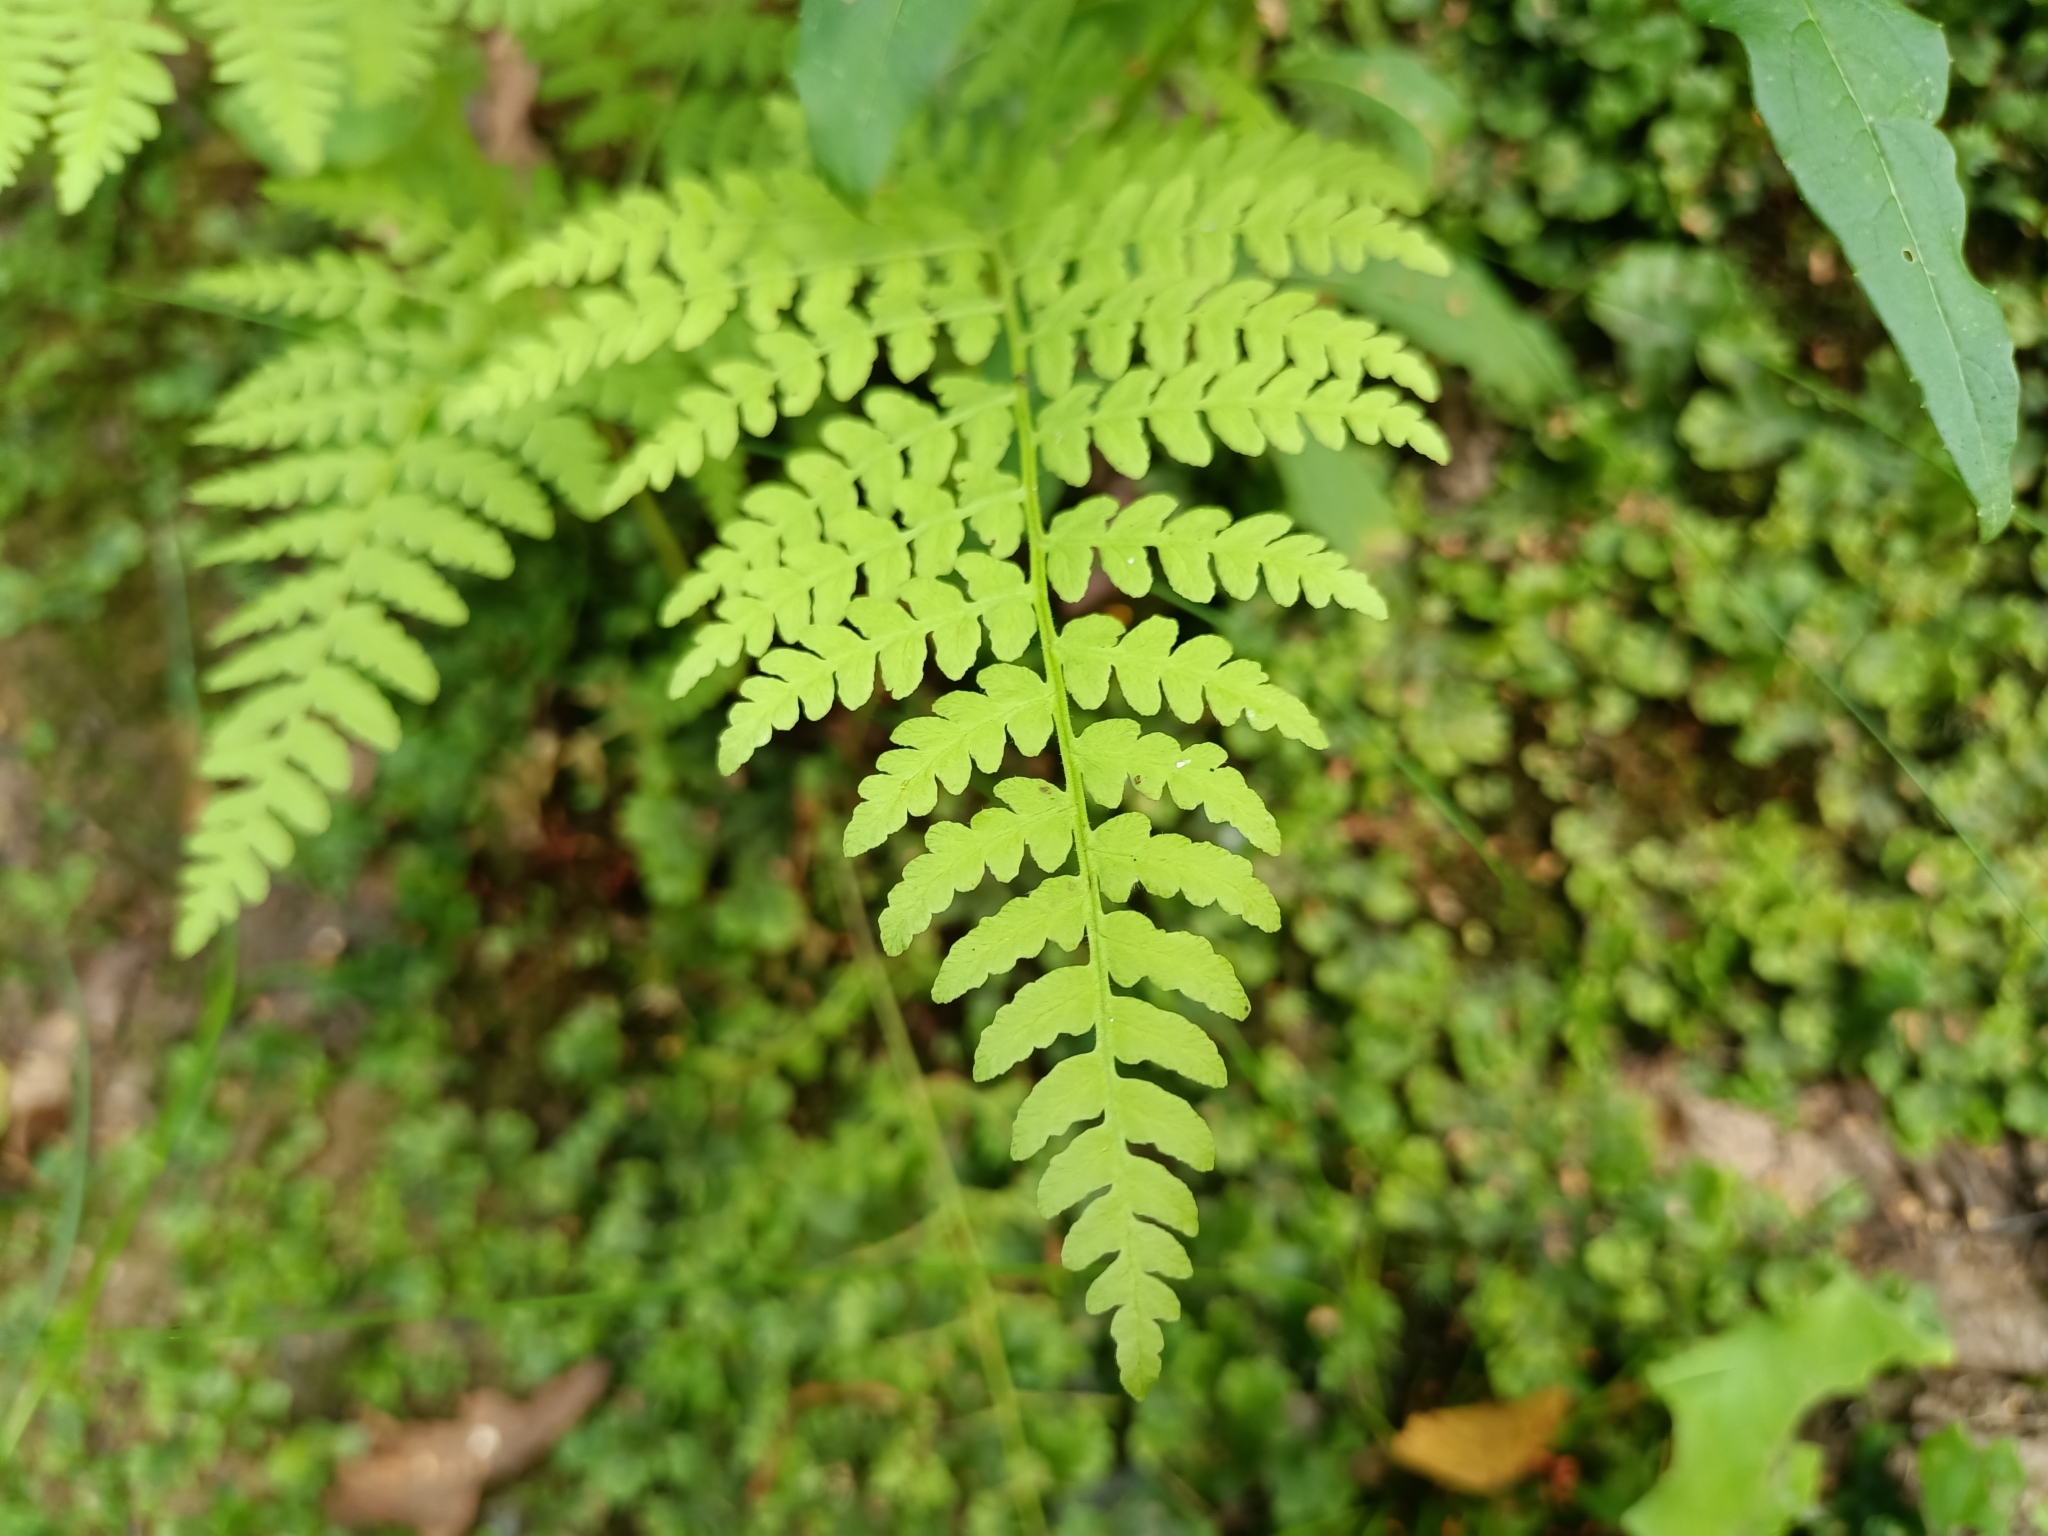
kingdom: Plantae
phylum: Tracheophyta
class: Polypodiopsida
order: Polypodiales
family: Cystopteridaceae
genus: Cystopteris
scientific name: Cystopteris fragilis
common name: Brittle bladder fern
